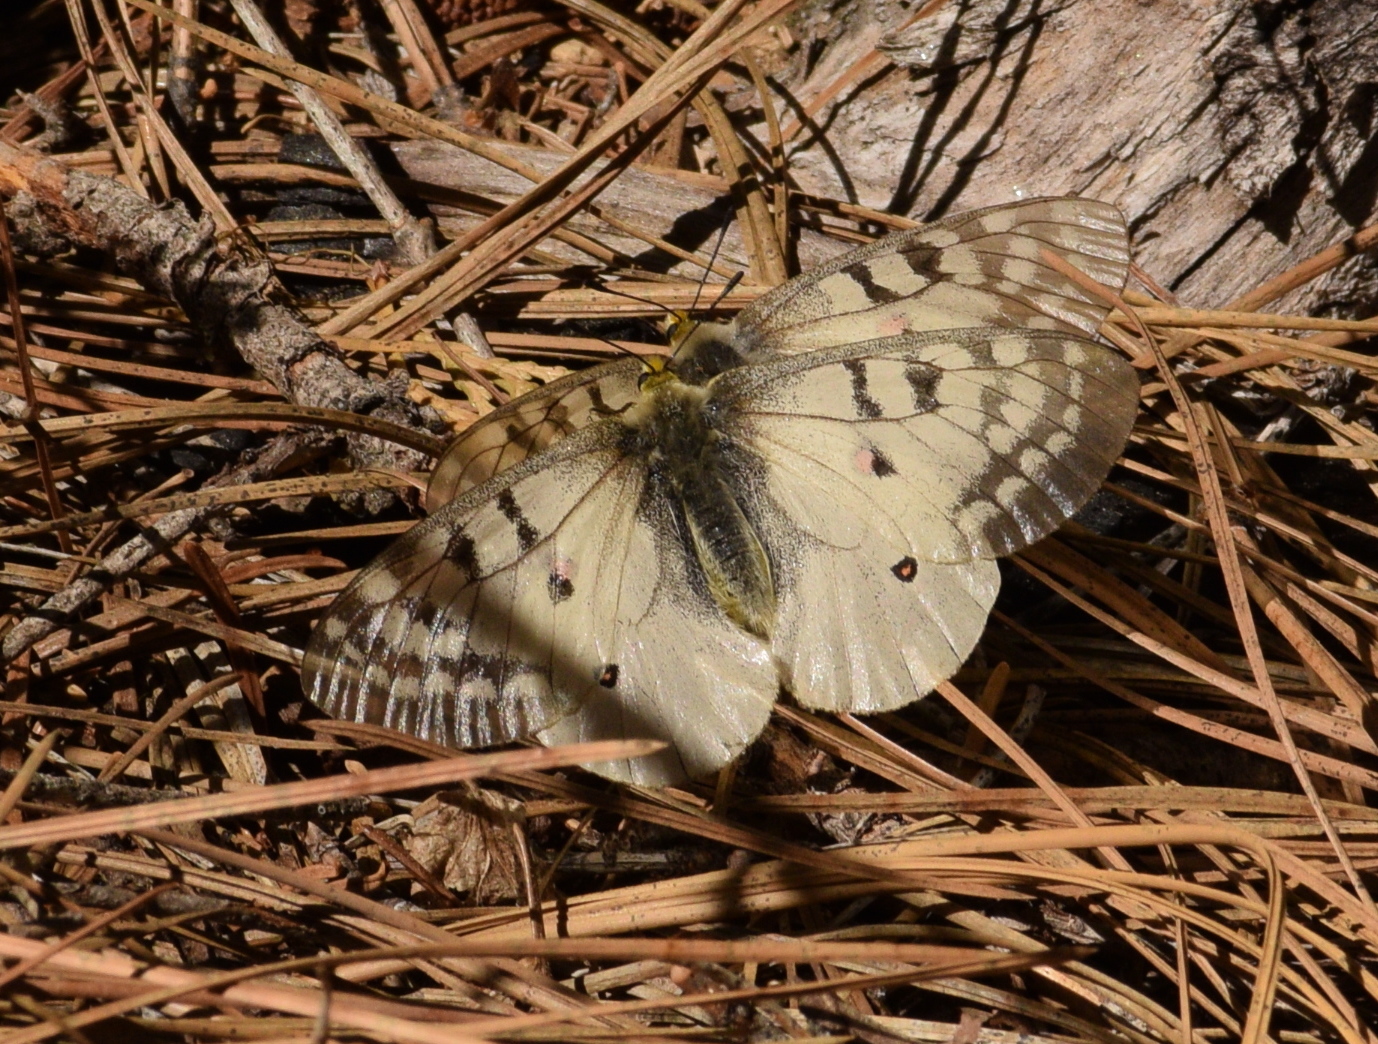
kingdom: Animalia
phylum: Arthropoda
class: Insecta
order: Lepidoptera
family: Papilionidae
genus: Parnassius
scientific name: Parnassius clodius
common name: American apollo
